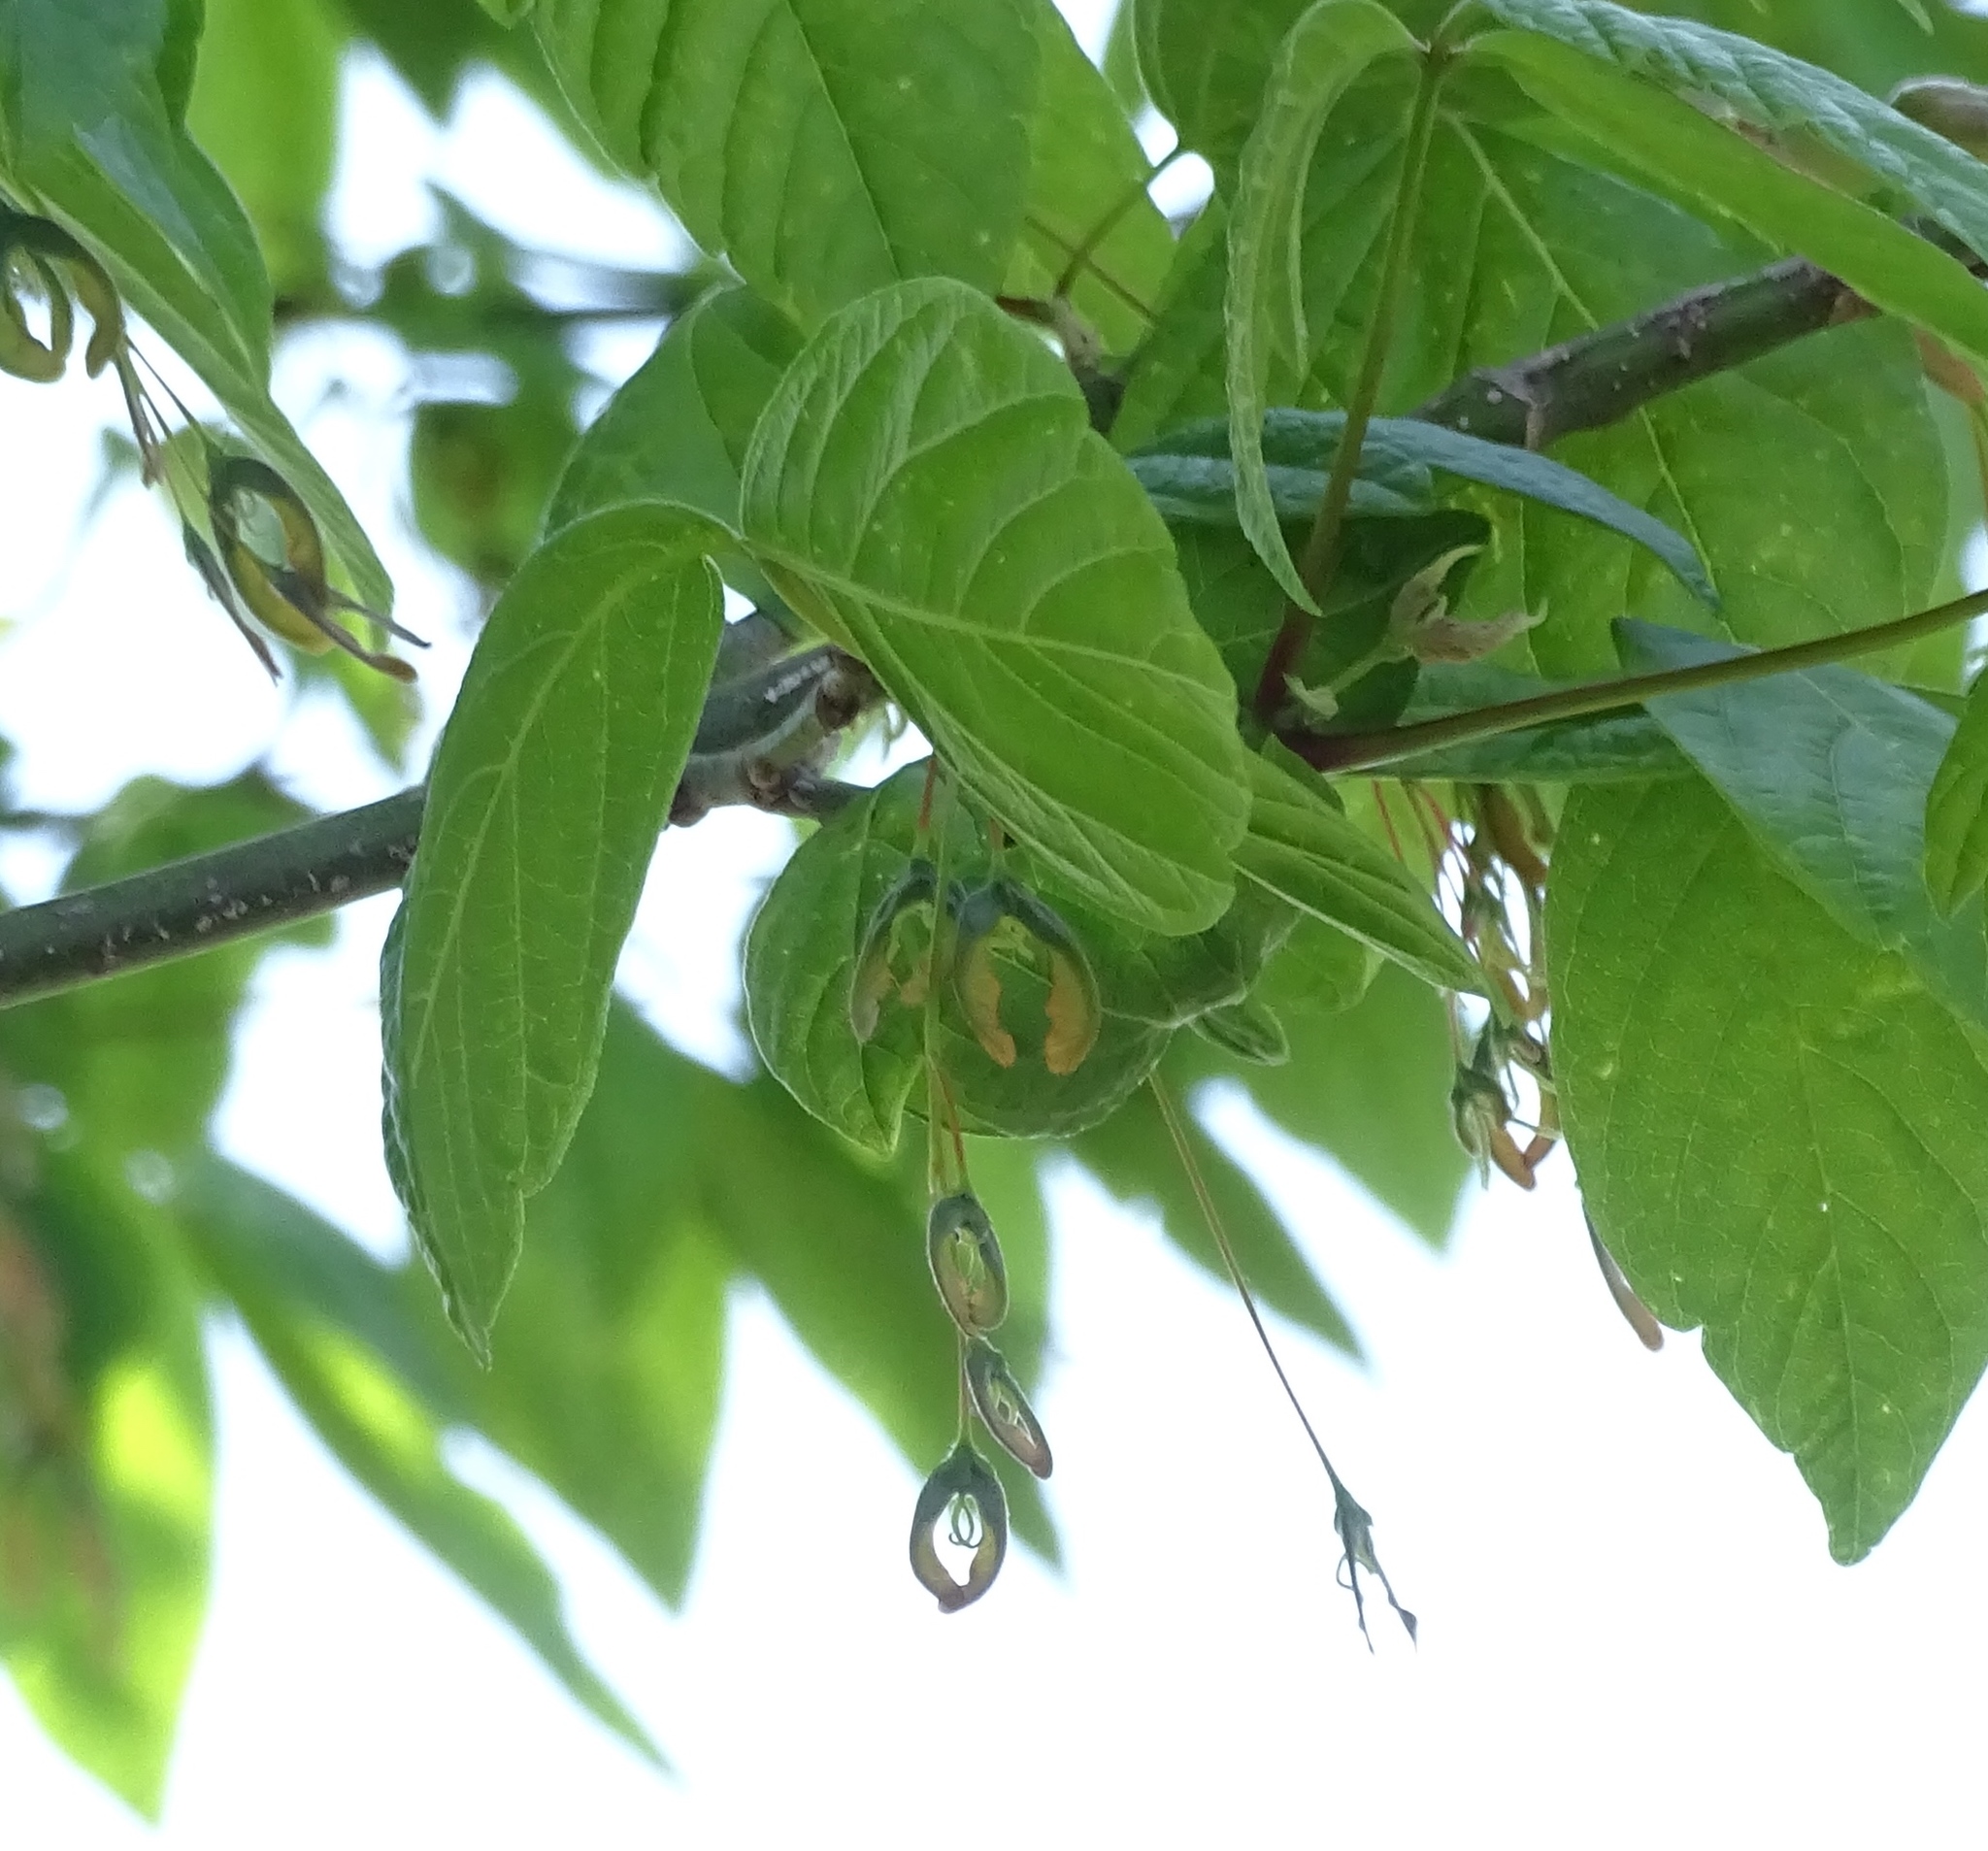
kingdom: Plantae
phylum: Tracheophyta
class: Magnoliopsida
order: Sapindales
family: Sapindaceae
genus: Acer
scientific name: Acer negundo
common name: Ashleaf maple
